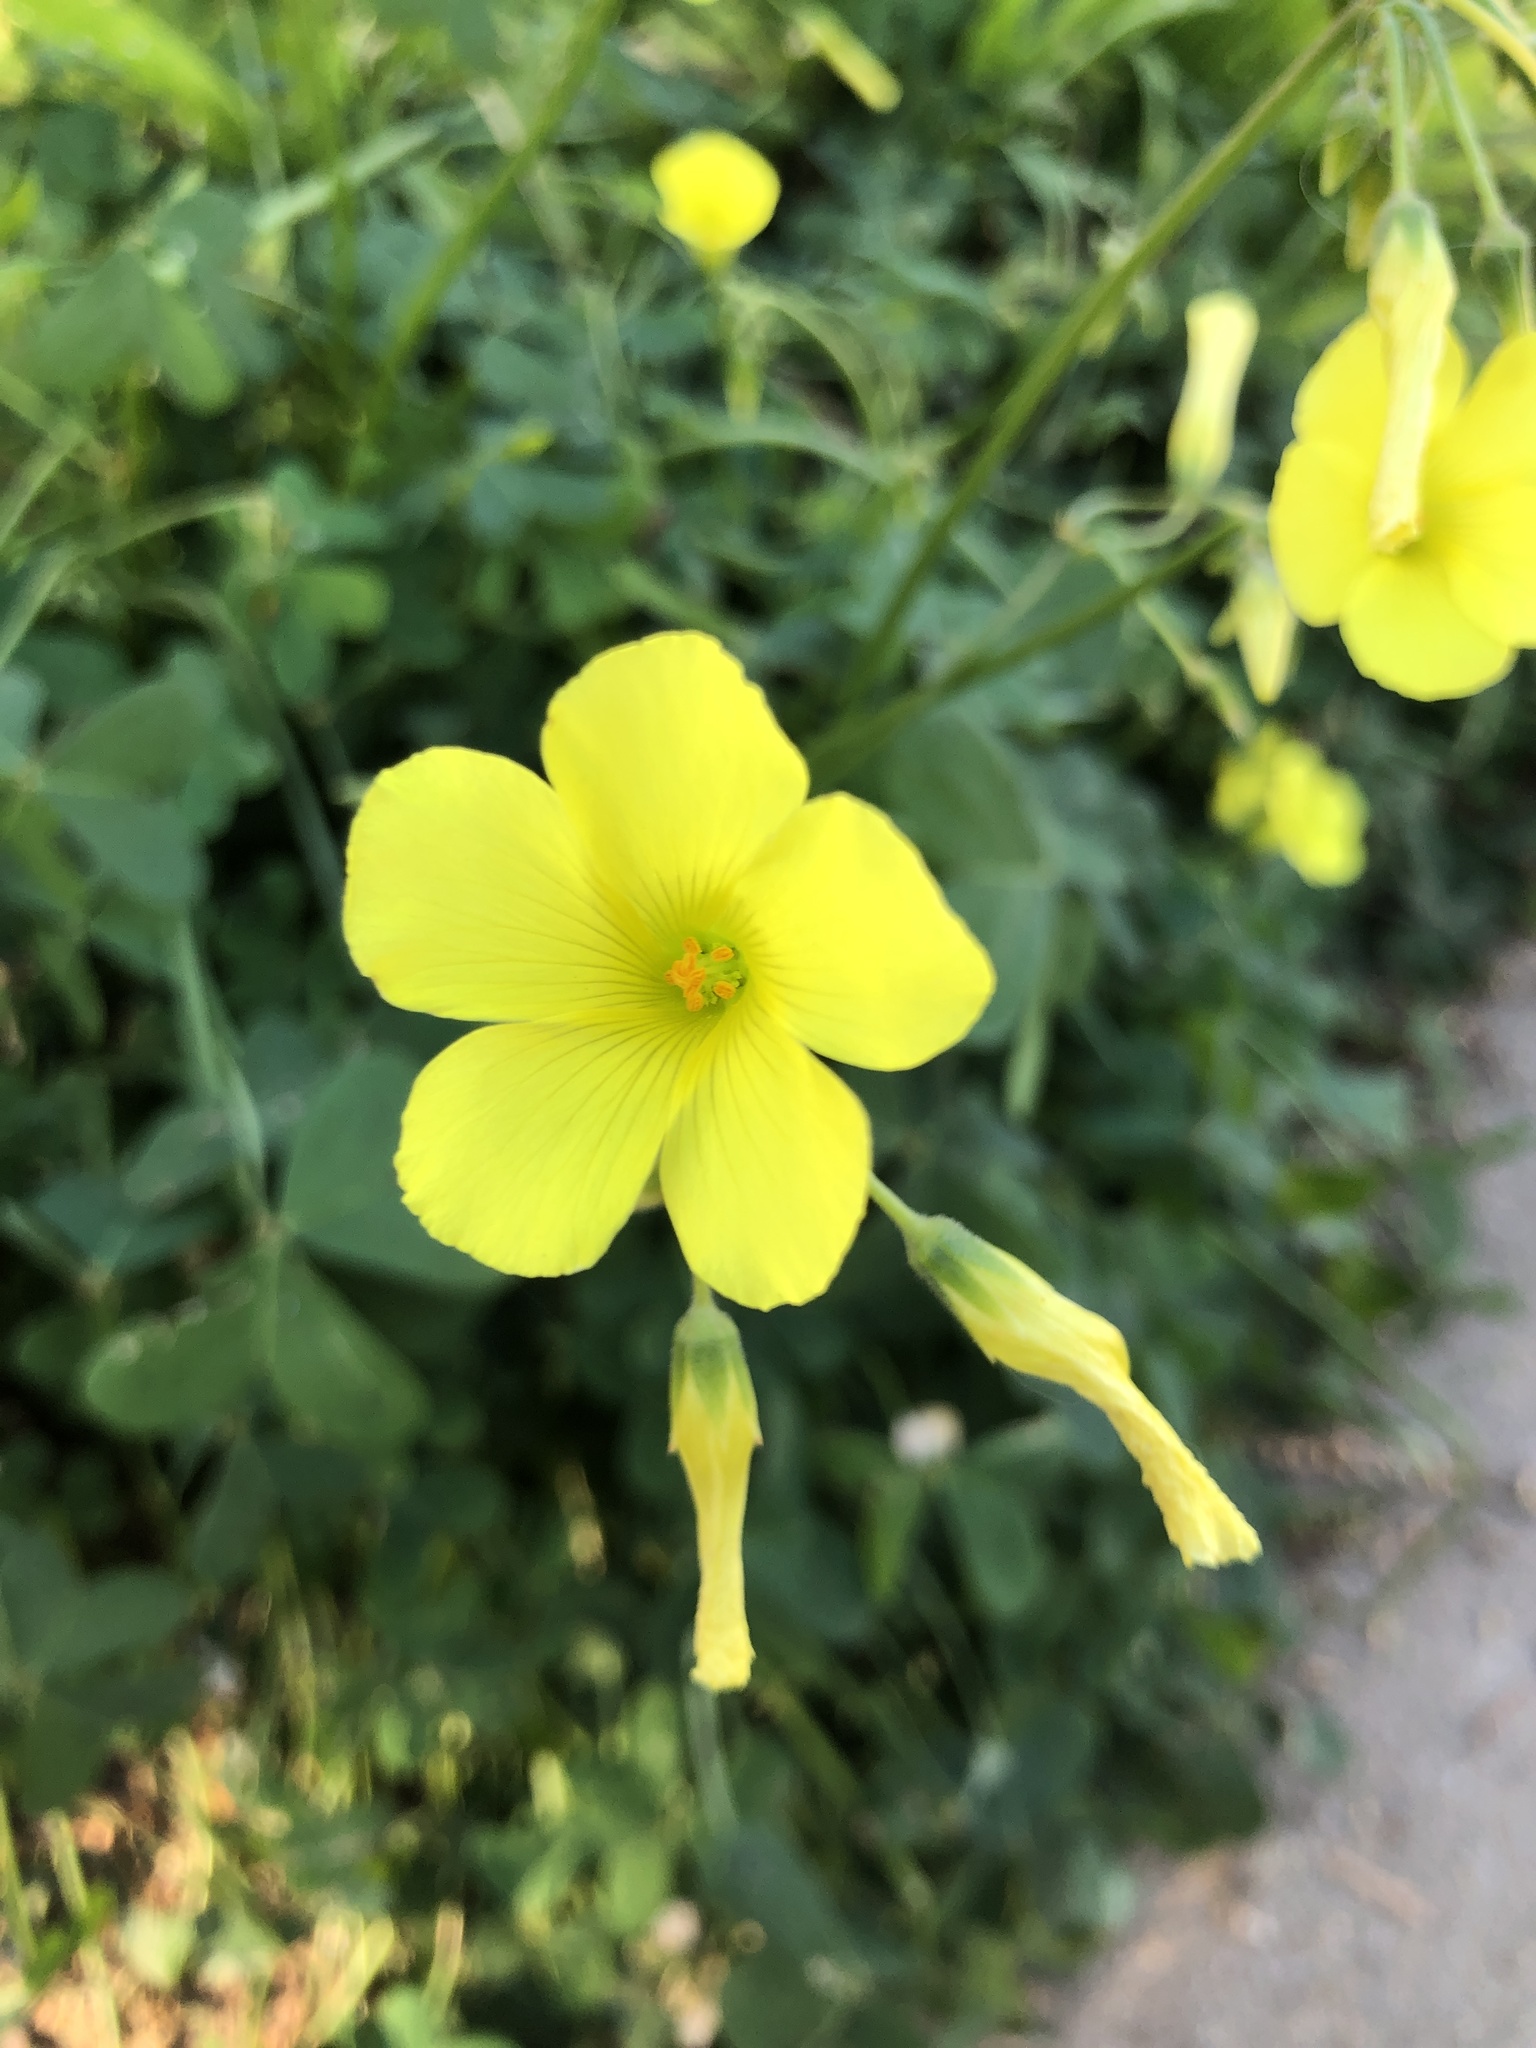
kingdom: Plantae
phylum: Tracheophyta
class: Magnoliopsida
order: Oxalidales
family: Oxalidaceae
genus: Oxalis
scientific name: Oxalis pes-caprae
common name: Bermuda-buttercup
